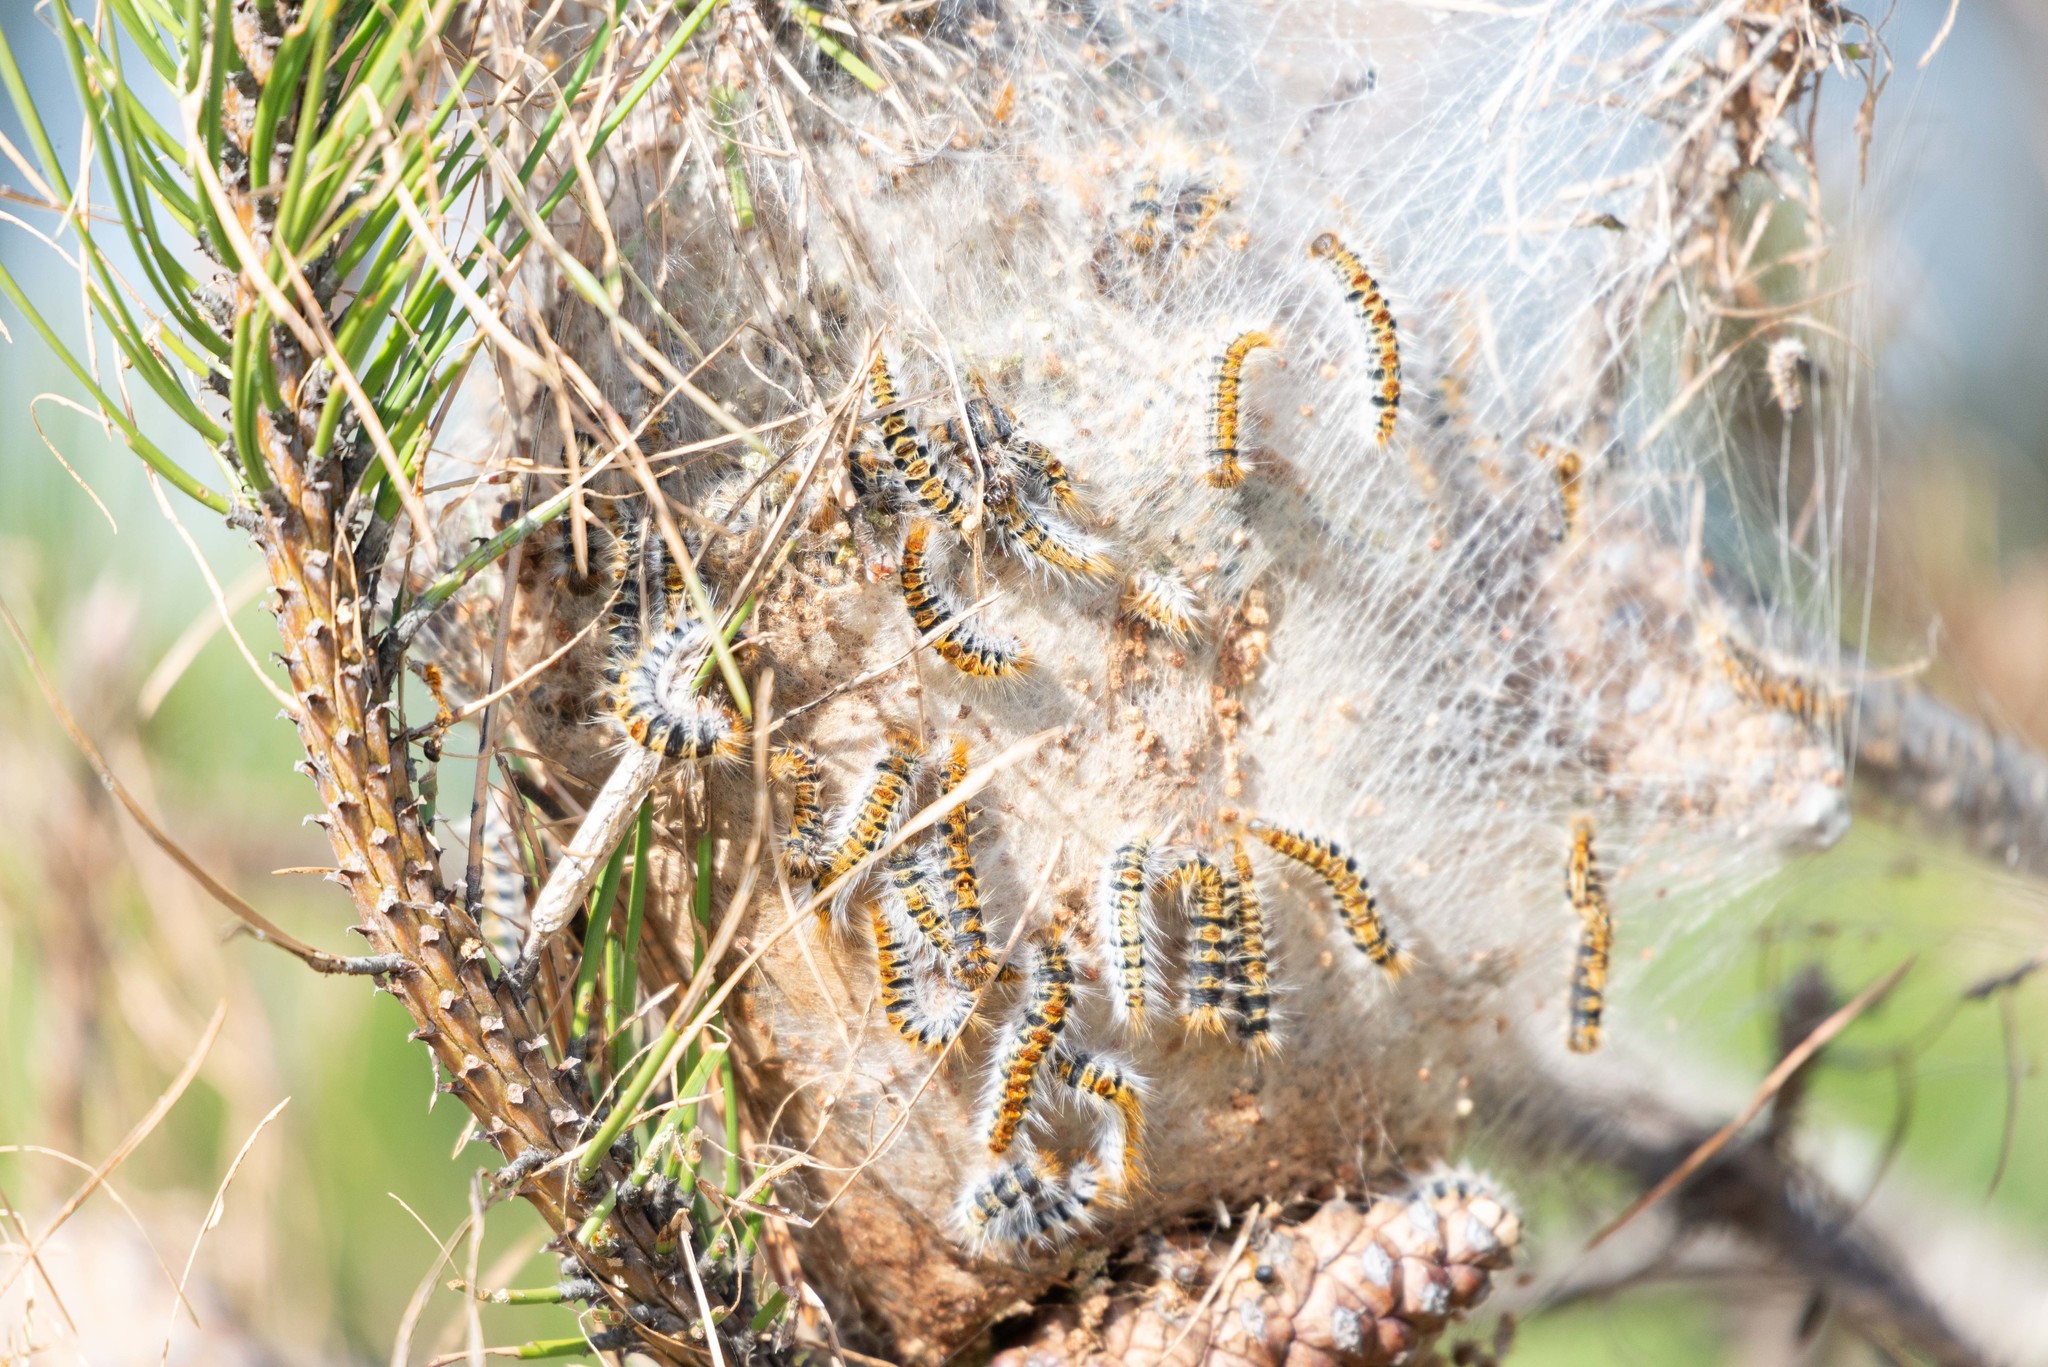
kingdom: Animalia
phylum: Arthropoda
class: Insecta
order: Lepidoptera
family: Notodontidae
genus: Thaumetopoea
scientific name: Thaumetopoea pityocampa
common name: Pine processionary
